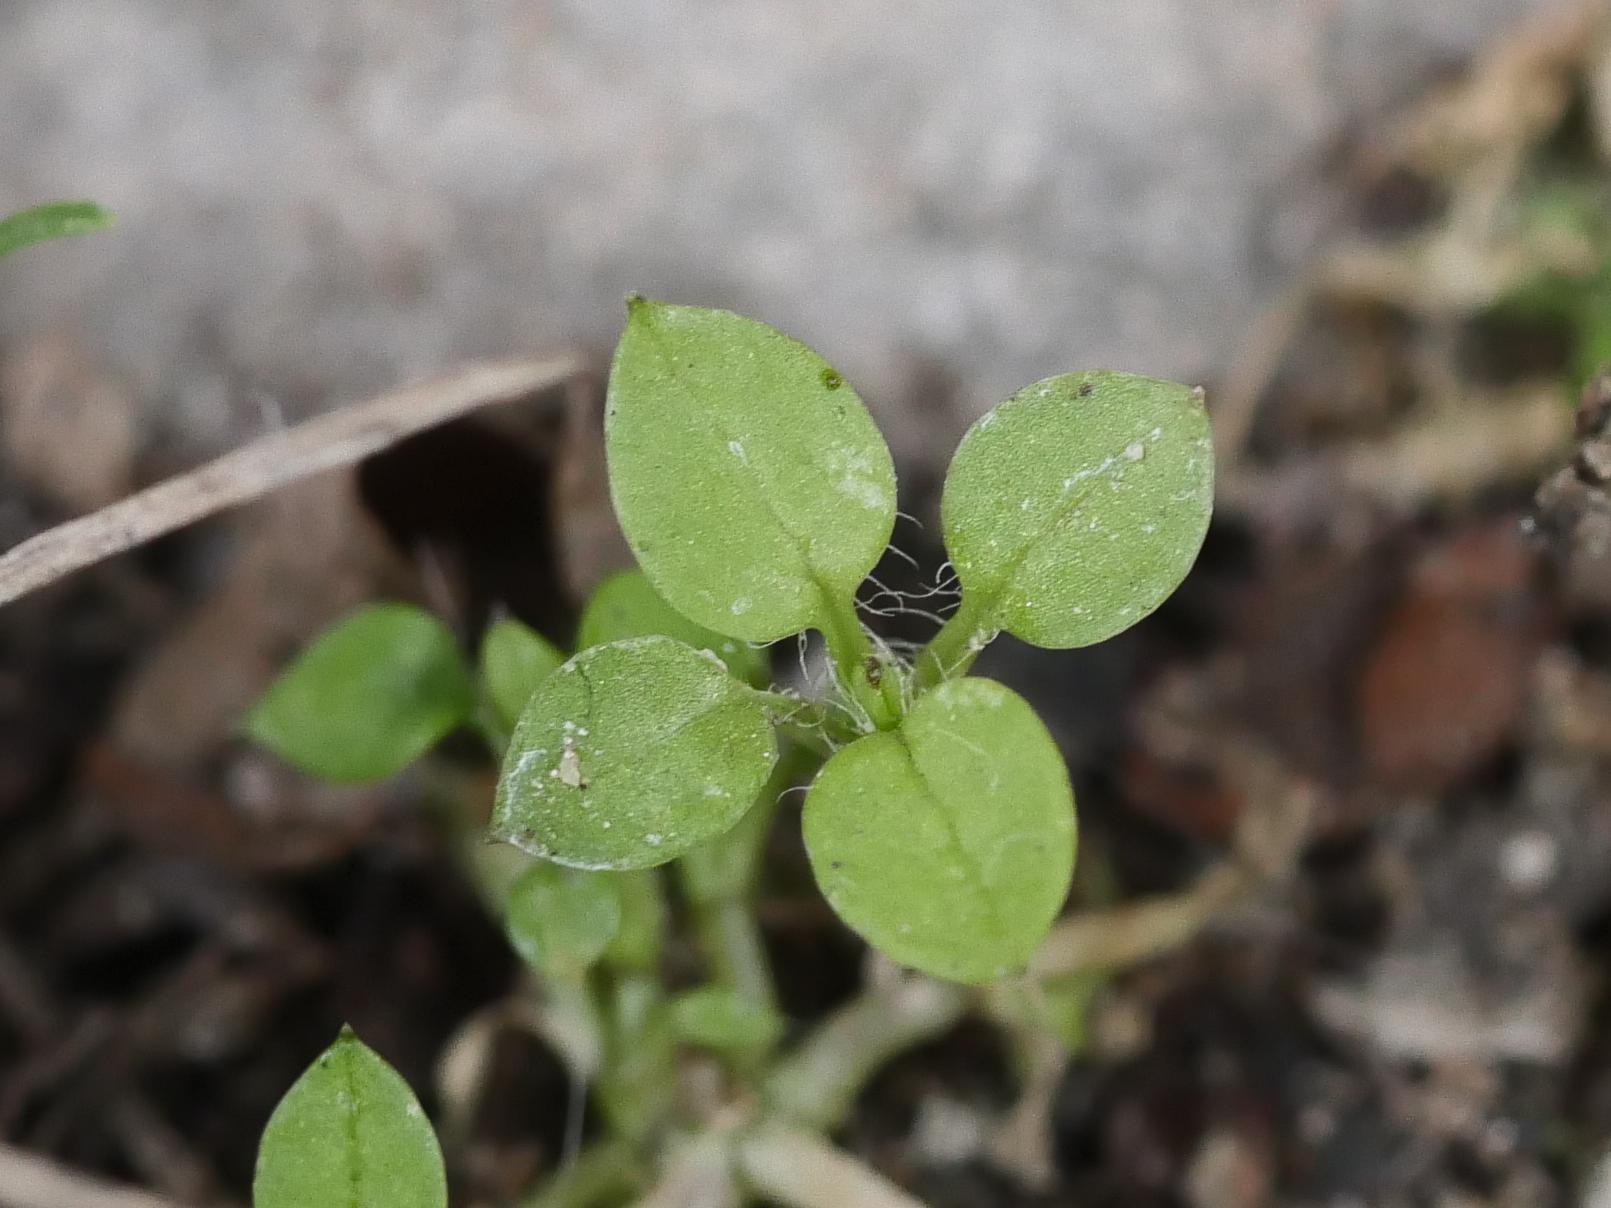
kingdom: Plantae
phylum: Tracheophyta
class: Magnoliopsida
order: Caryophyllales
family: Caryophyllaceae
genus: Stellaria
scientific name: Stellaria media
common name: Common chickweed
